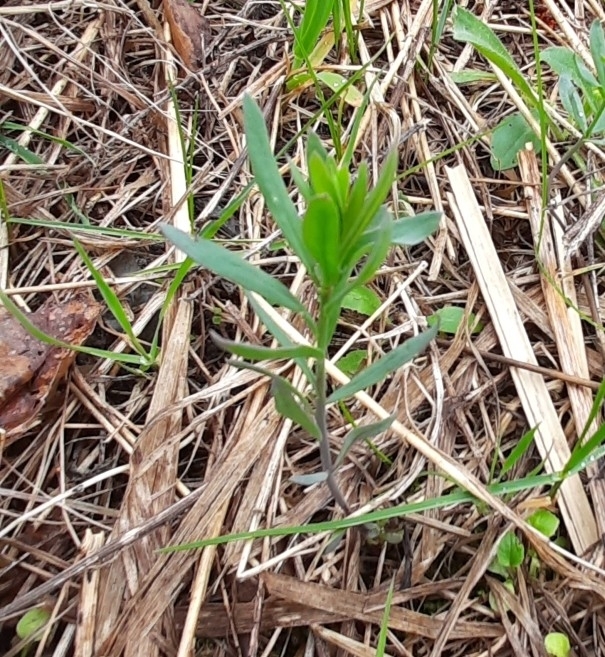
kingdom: Plantae
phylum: Tracheophyta
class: Magnoliopsida
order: Brassicales
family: Brassicaceae
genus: Erysimum
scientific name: Erysimum cheiranthoides
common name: Treacle mustard
